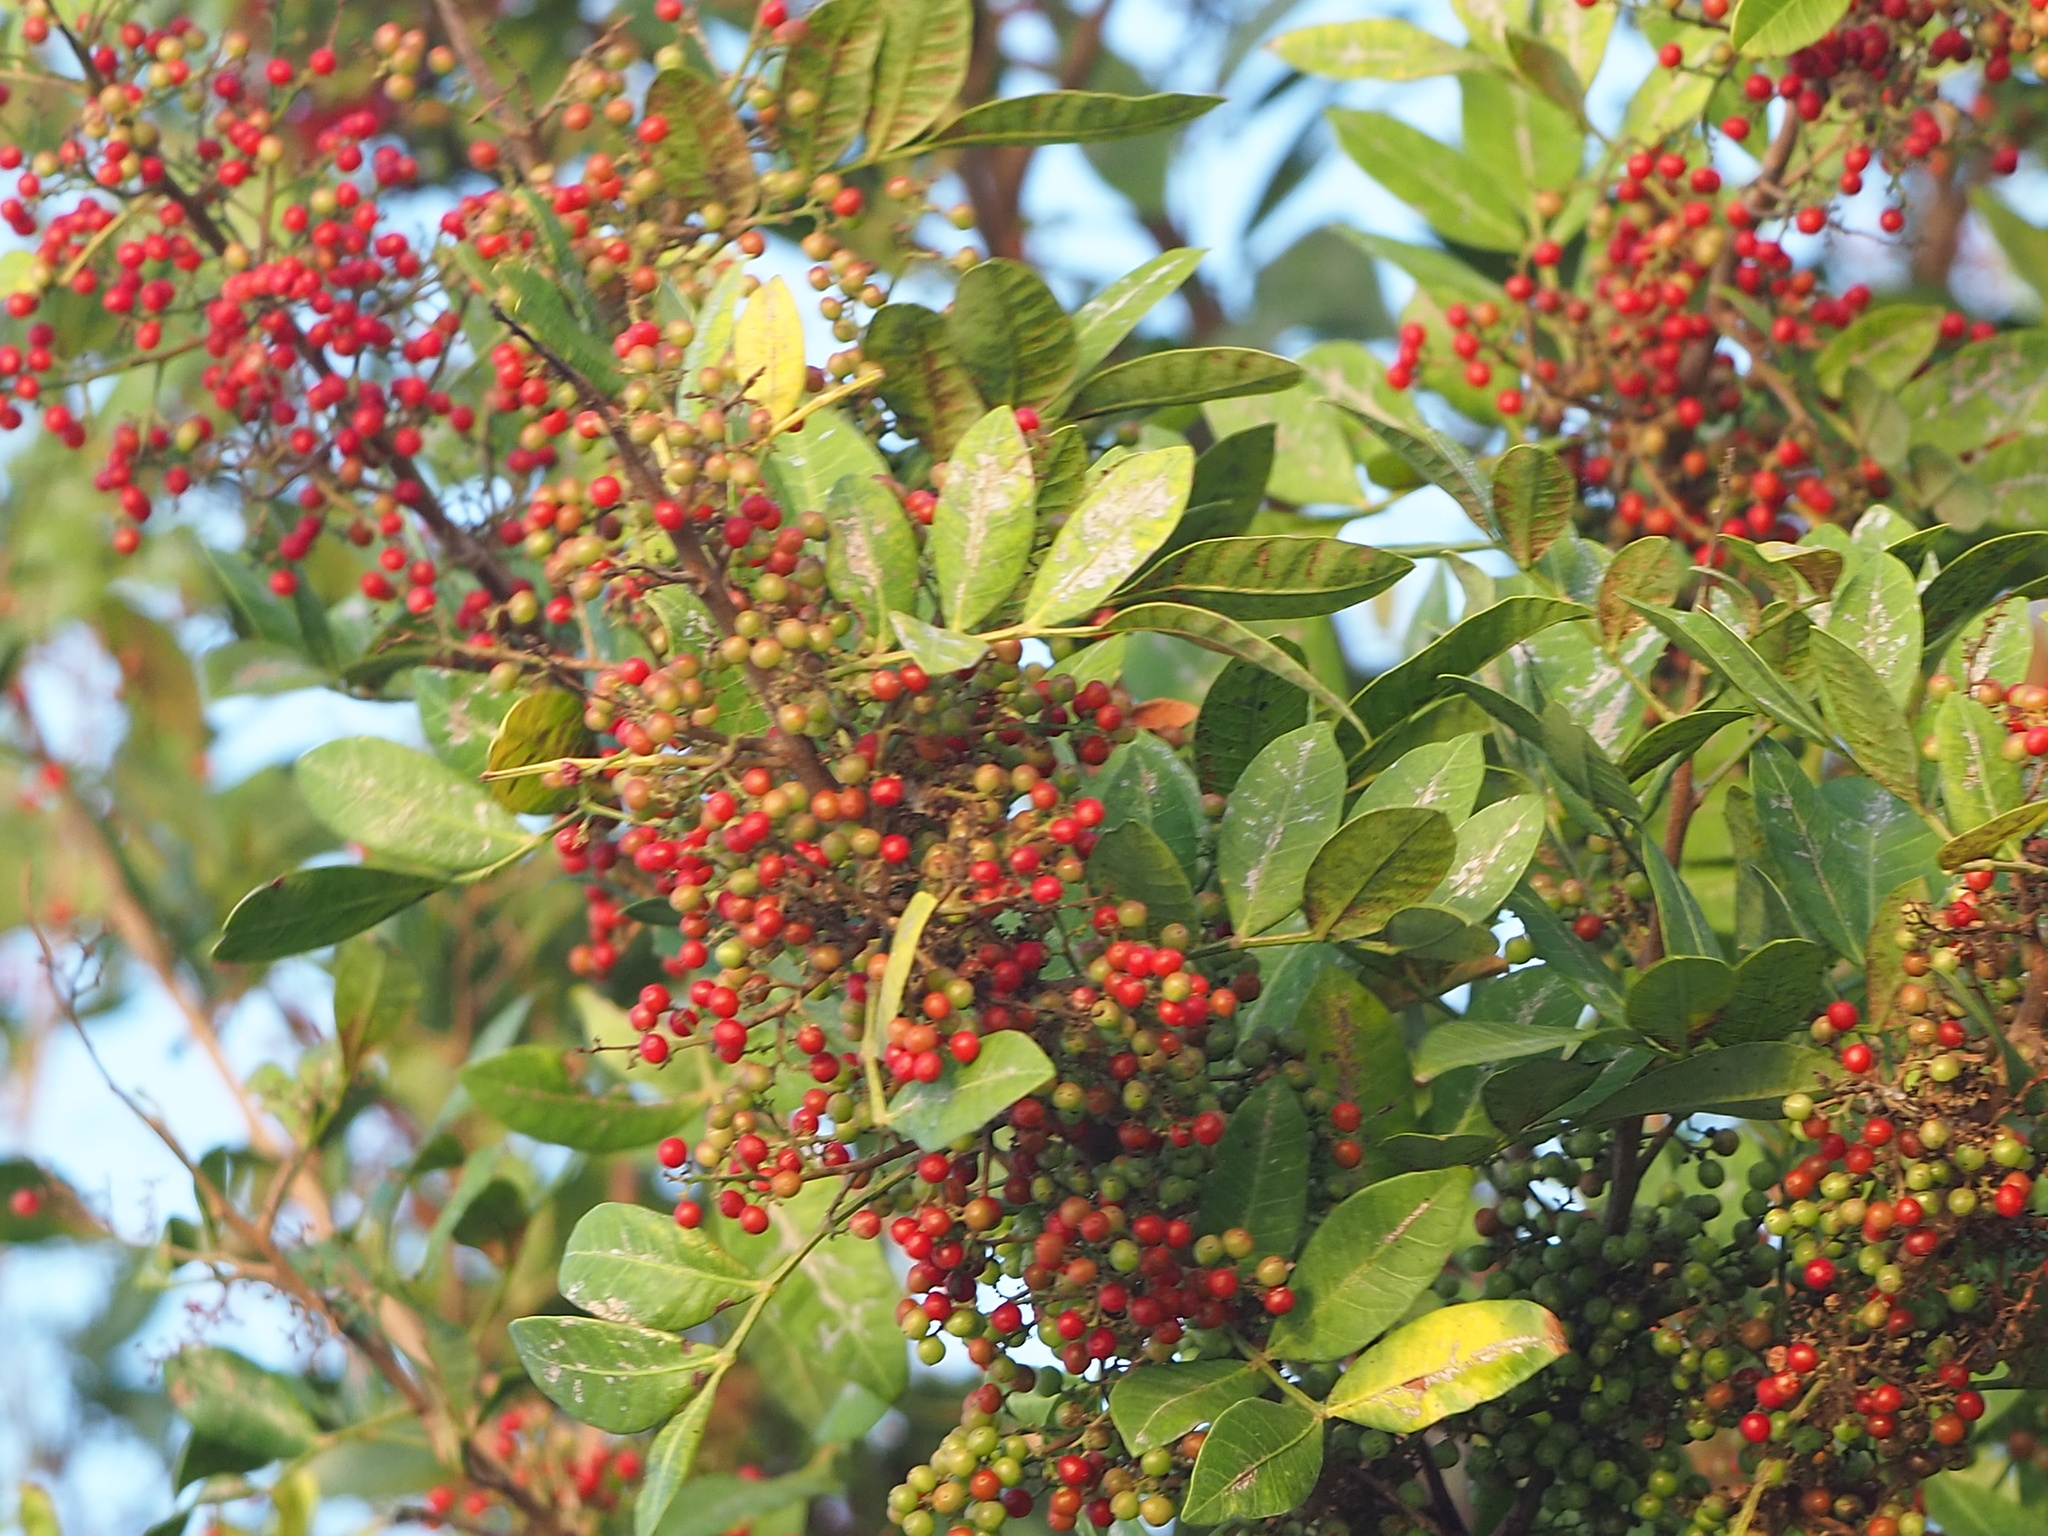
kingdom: Plantae
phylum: Tracheophyta
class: Magnoliopsida
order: Sapindales
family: Anacardiaceae
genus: Schinus
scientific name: Schinus terebinthifolia
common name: Brazilian peppertree
